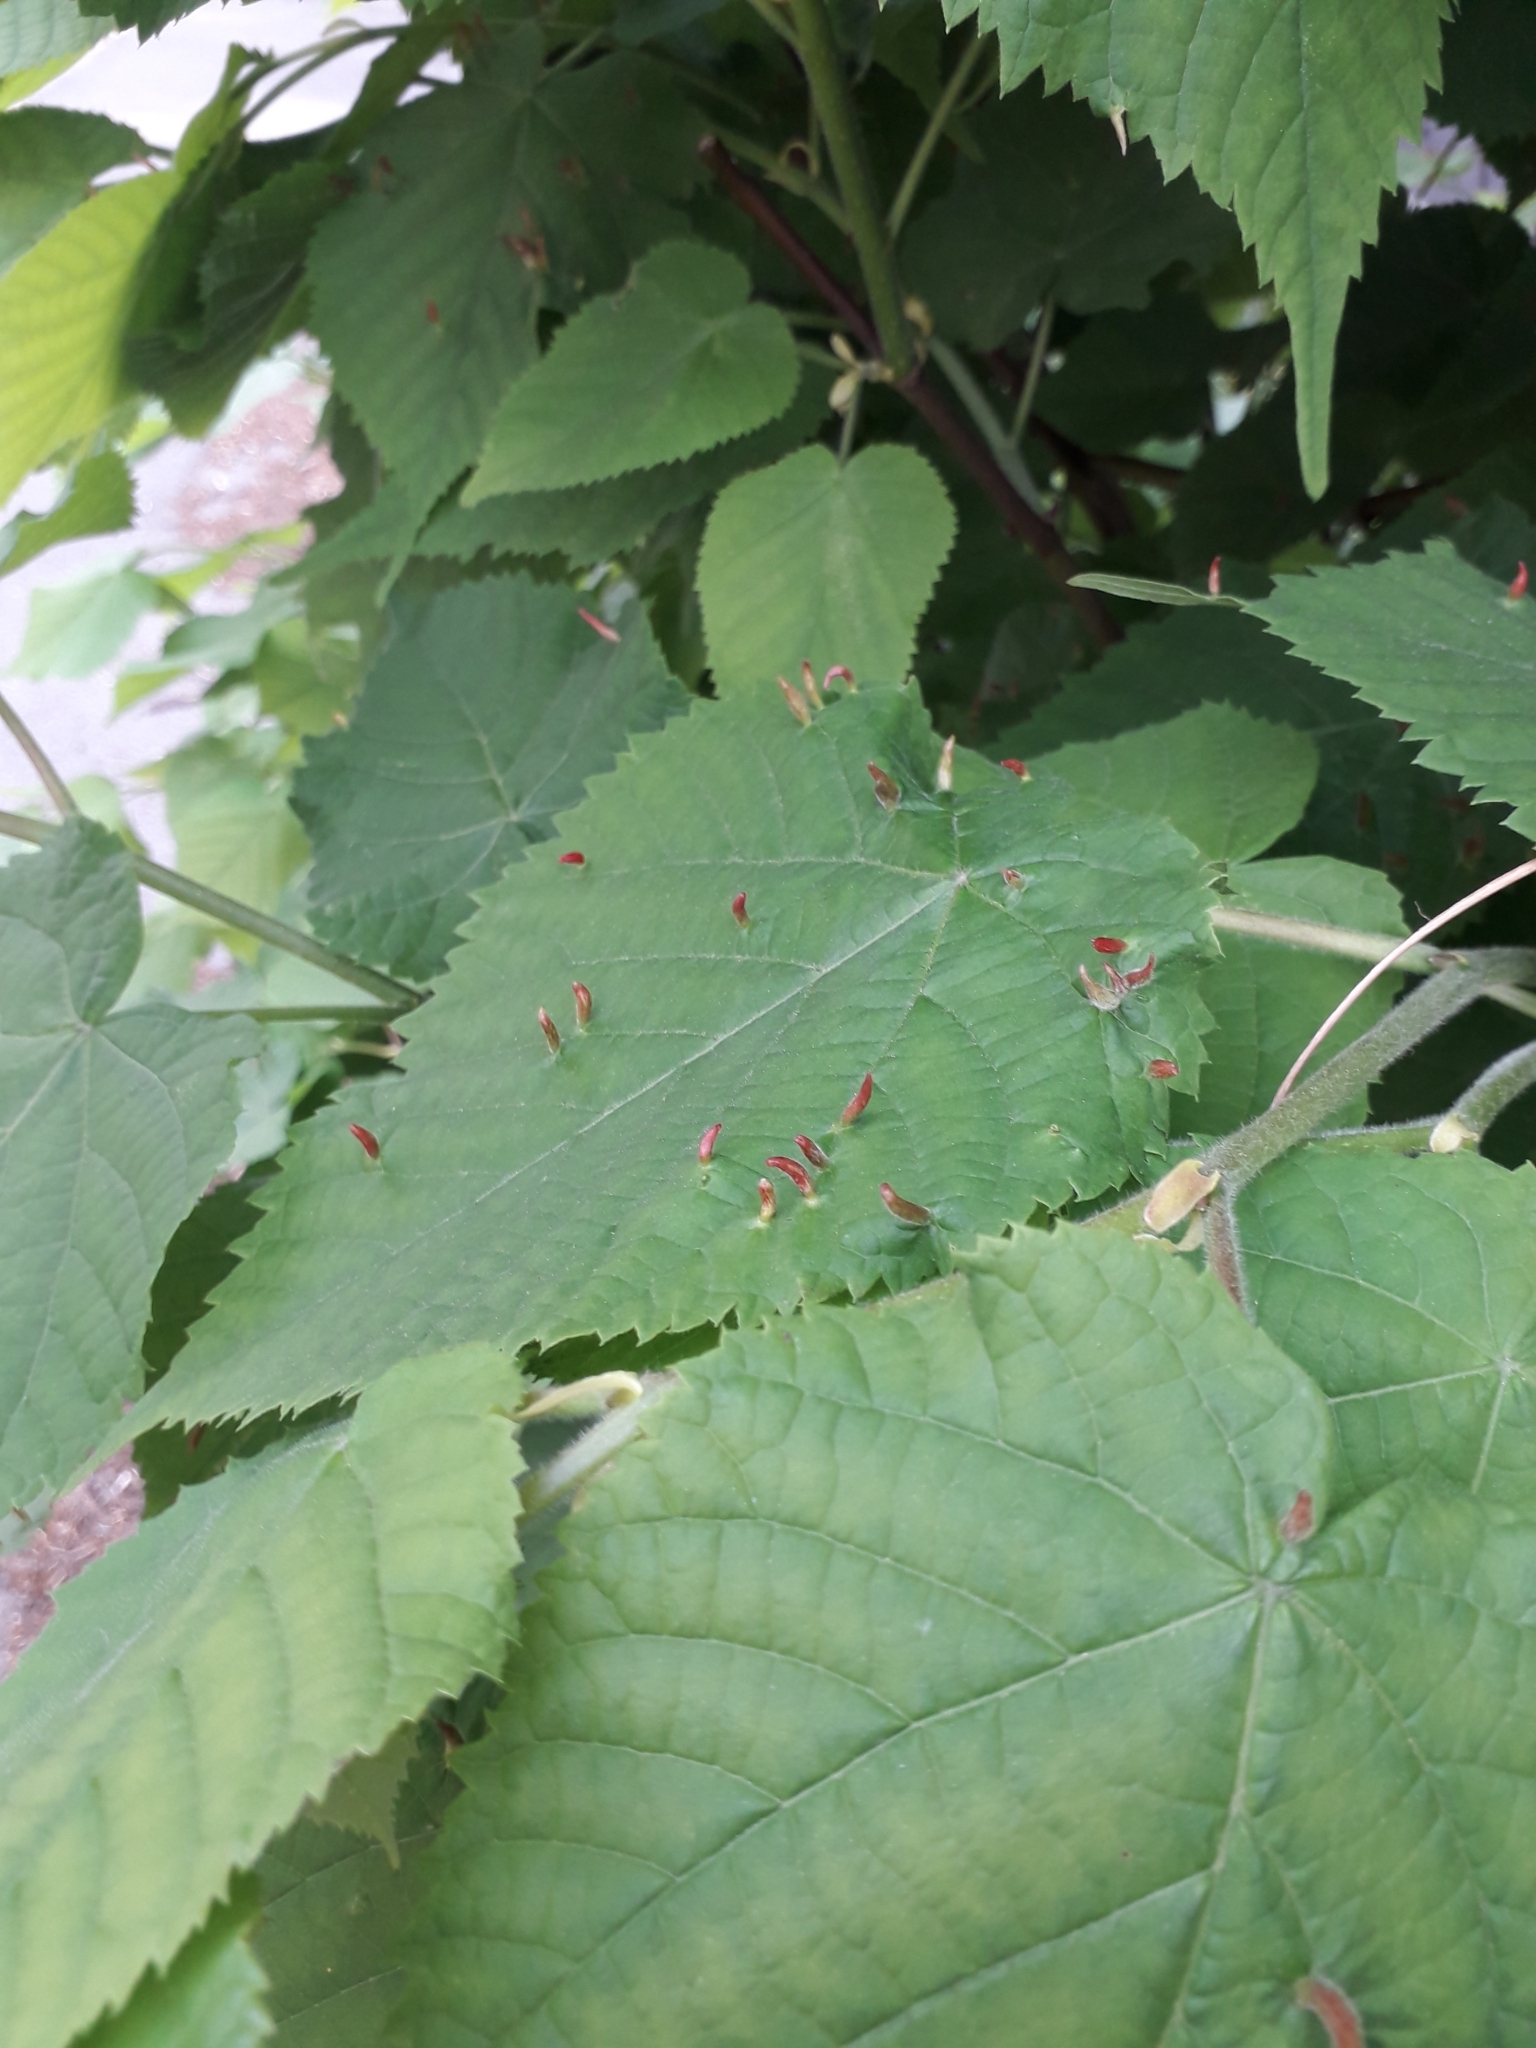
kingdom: Animalia
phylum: Arthropoda
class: Arachnida
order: Trombidiformes
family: Eriophyidae
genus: Eriophyes
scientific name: Eriophyes tiliae
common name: Red nail gall mite
